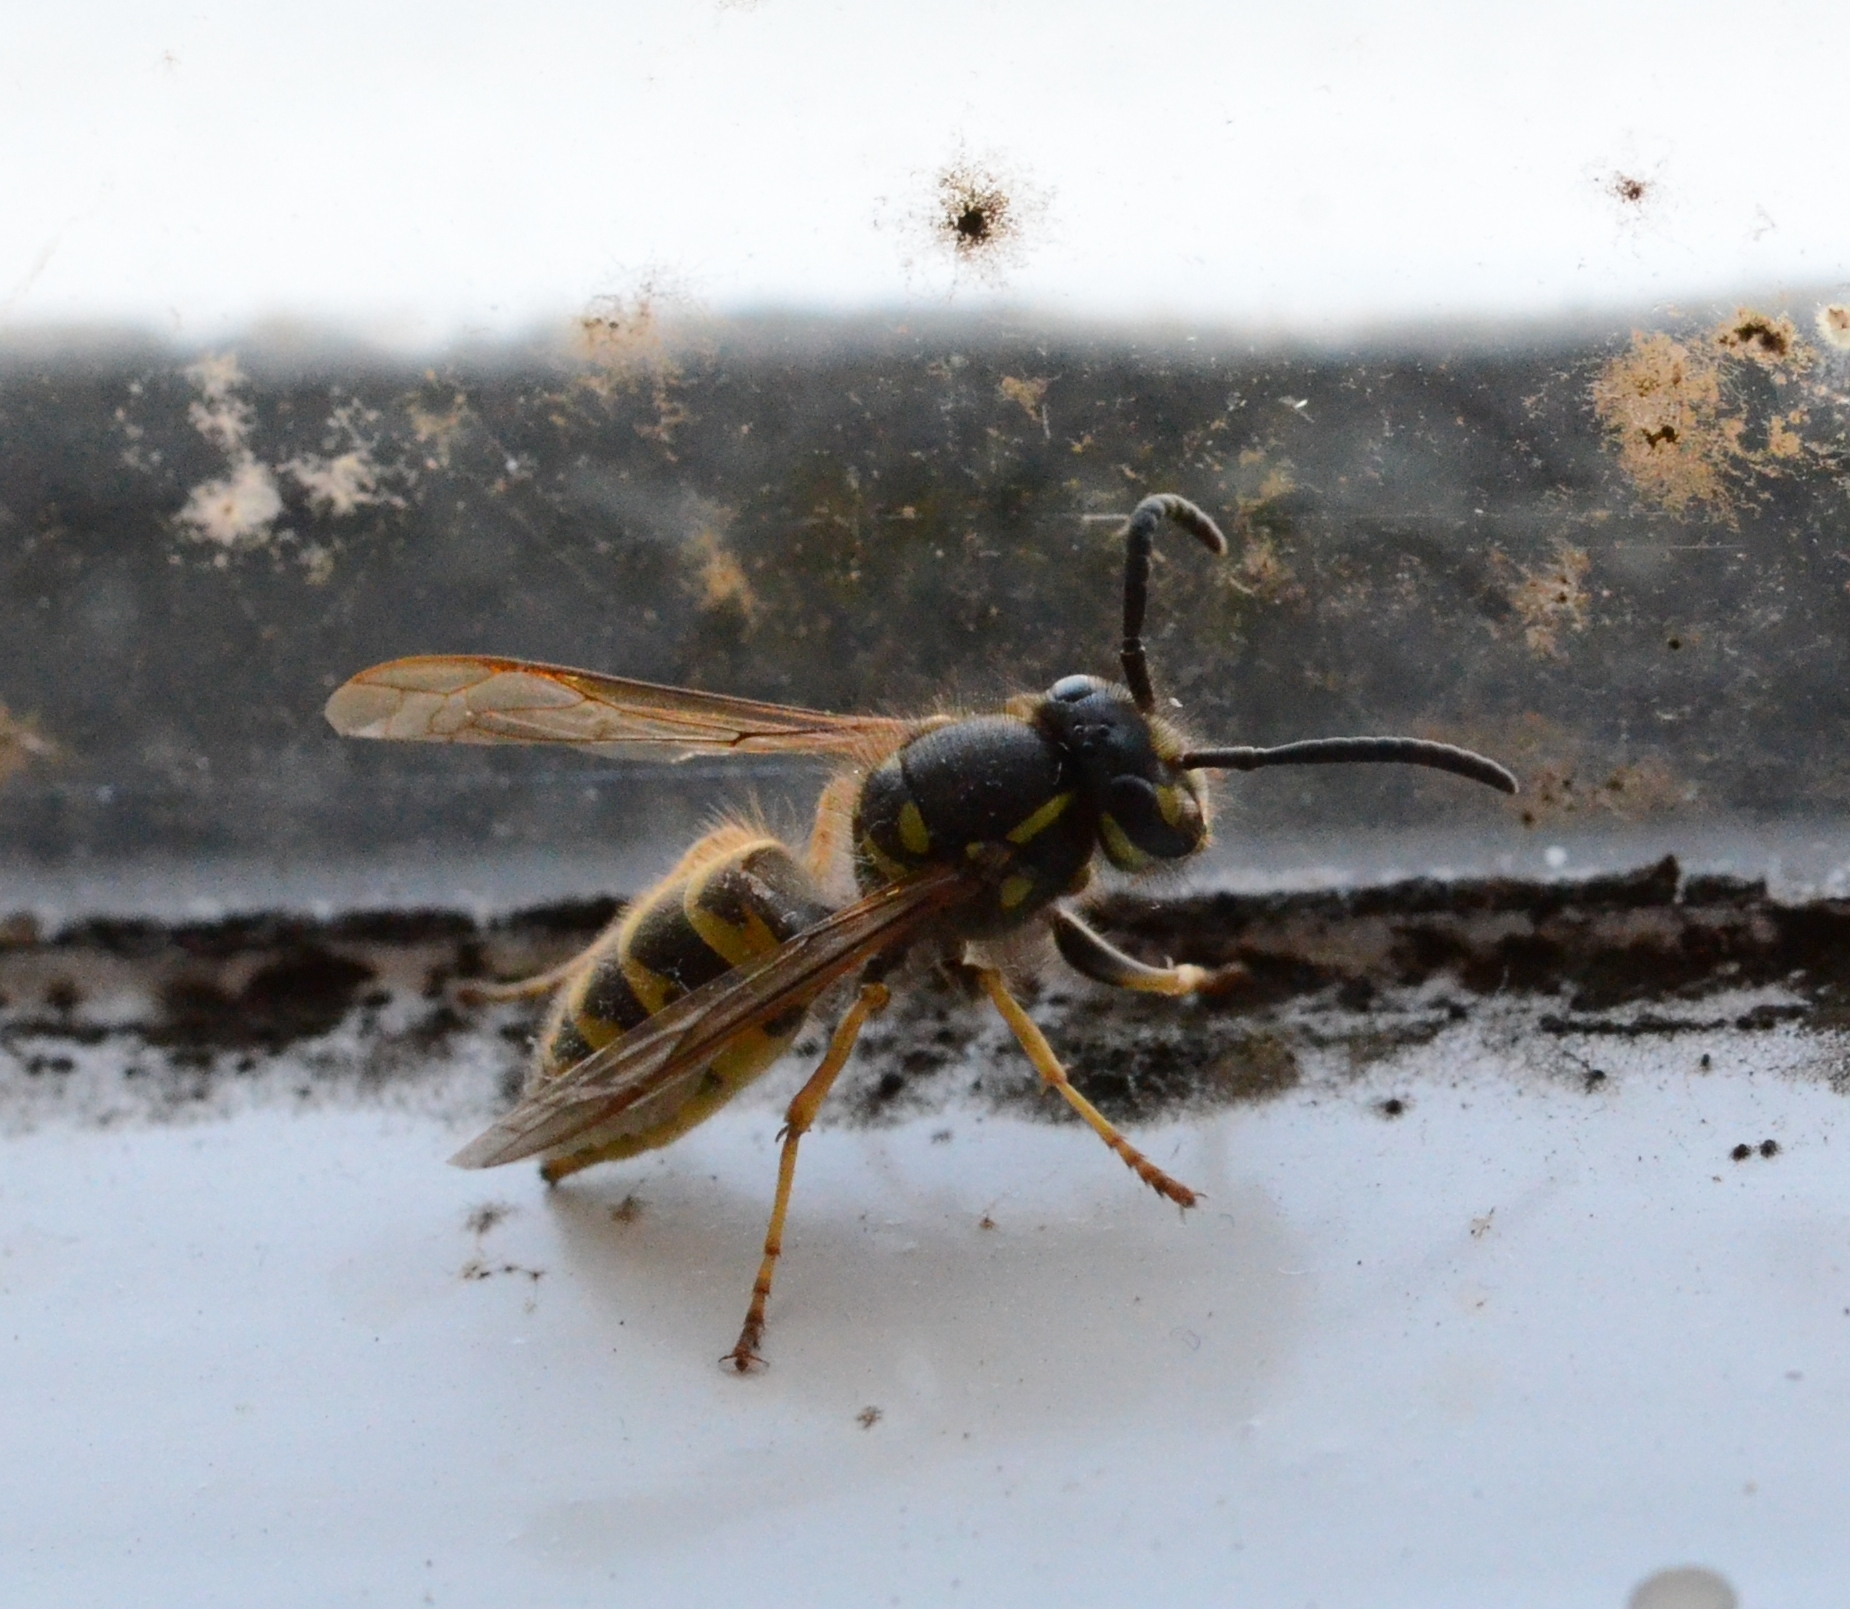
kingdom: Animalia
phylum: Arthropoda
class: Insecta
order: Hymenoptera
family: Vespidae
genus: Vespula
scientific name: Vespula vulgaris
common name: Common wasp
